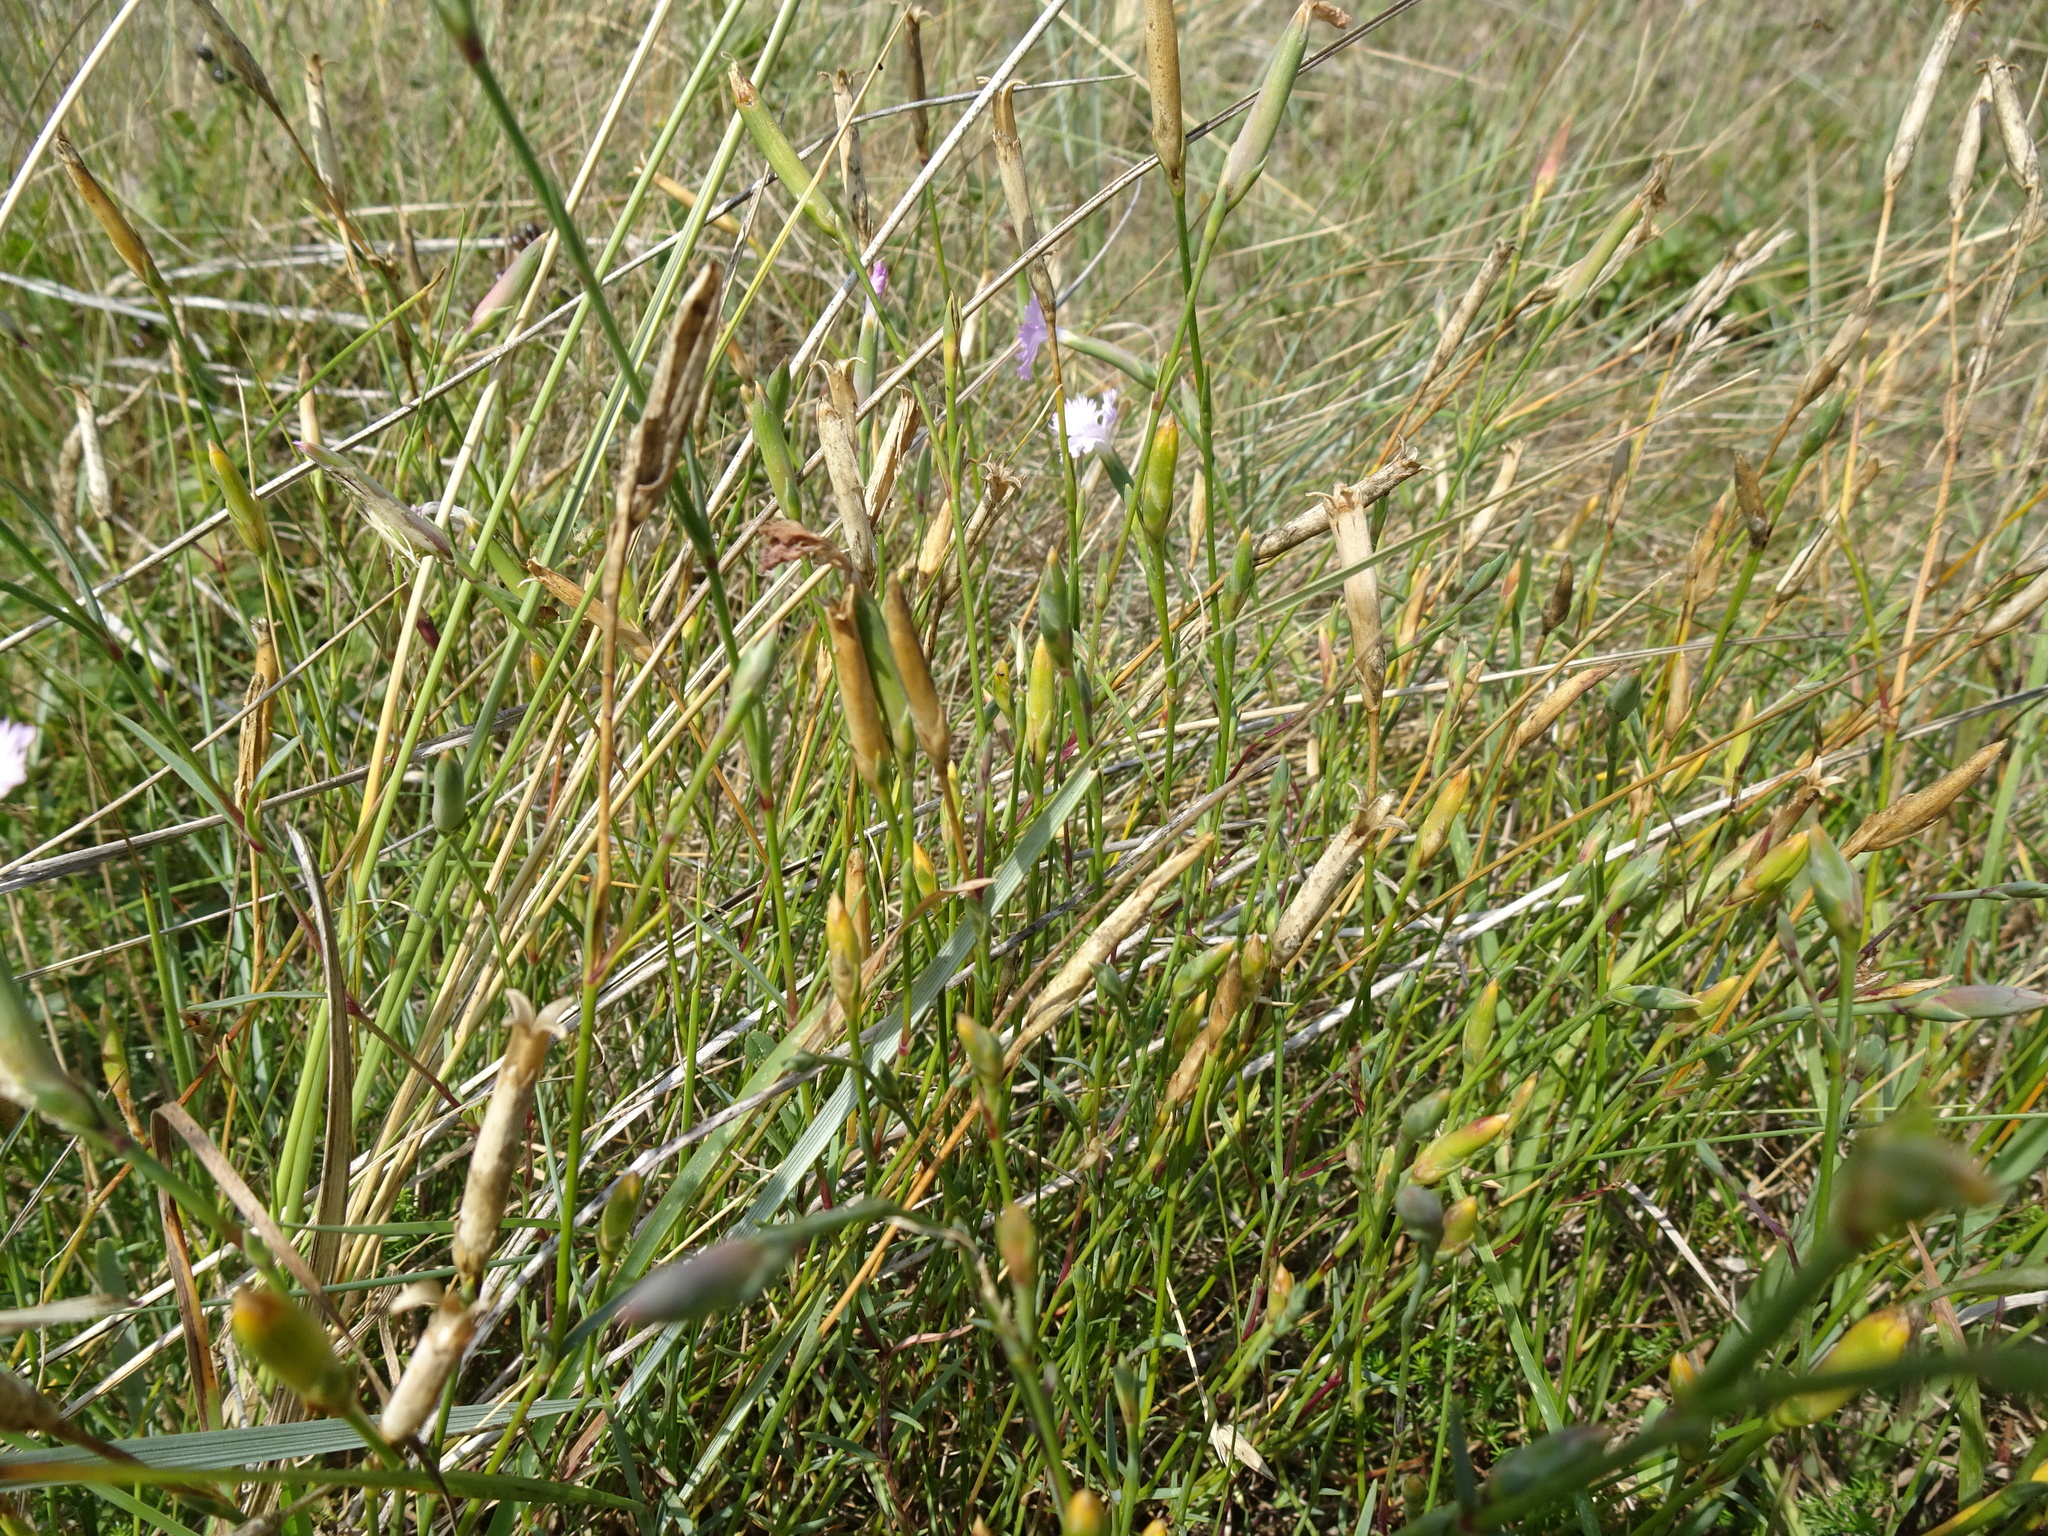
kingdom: Plantae
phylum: Tracheophyta
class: Magnoliopsida
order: Caryophyllales
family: Caryophyllaceae
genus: Dianthus
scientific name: Dianthus gallicus
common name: Jersey pink
